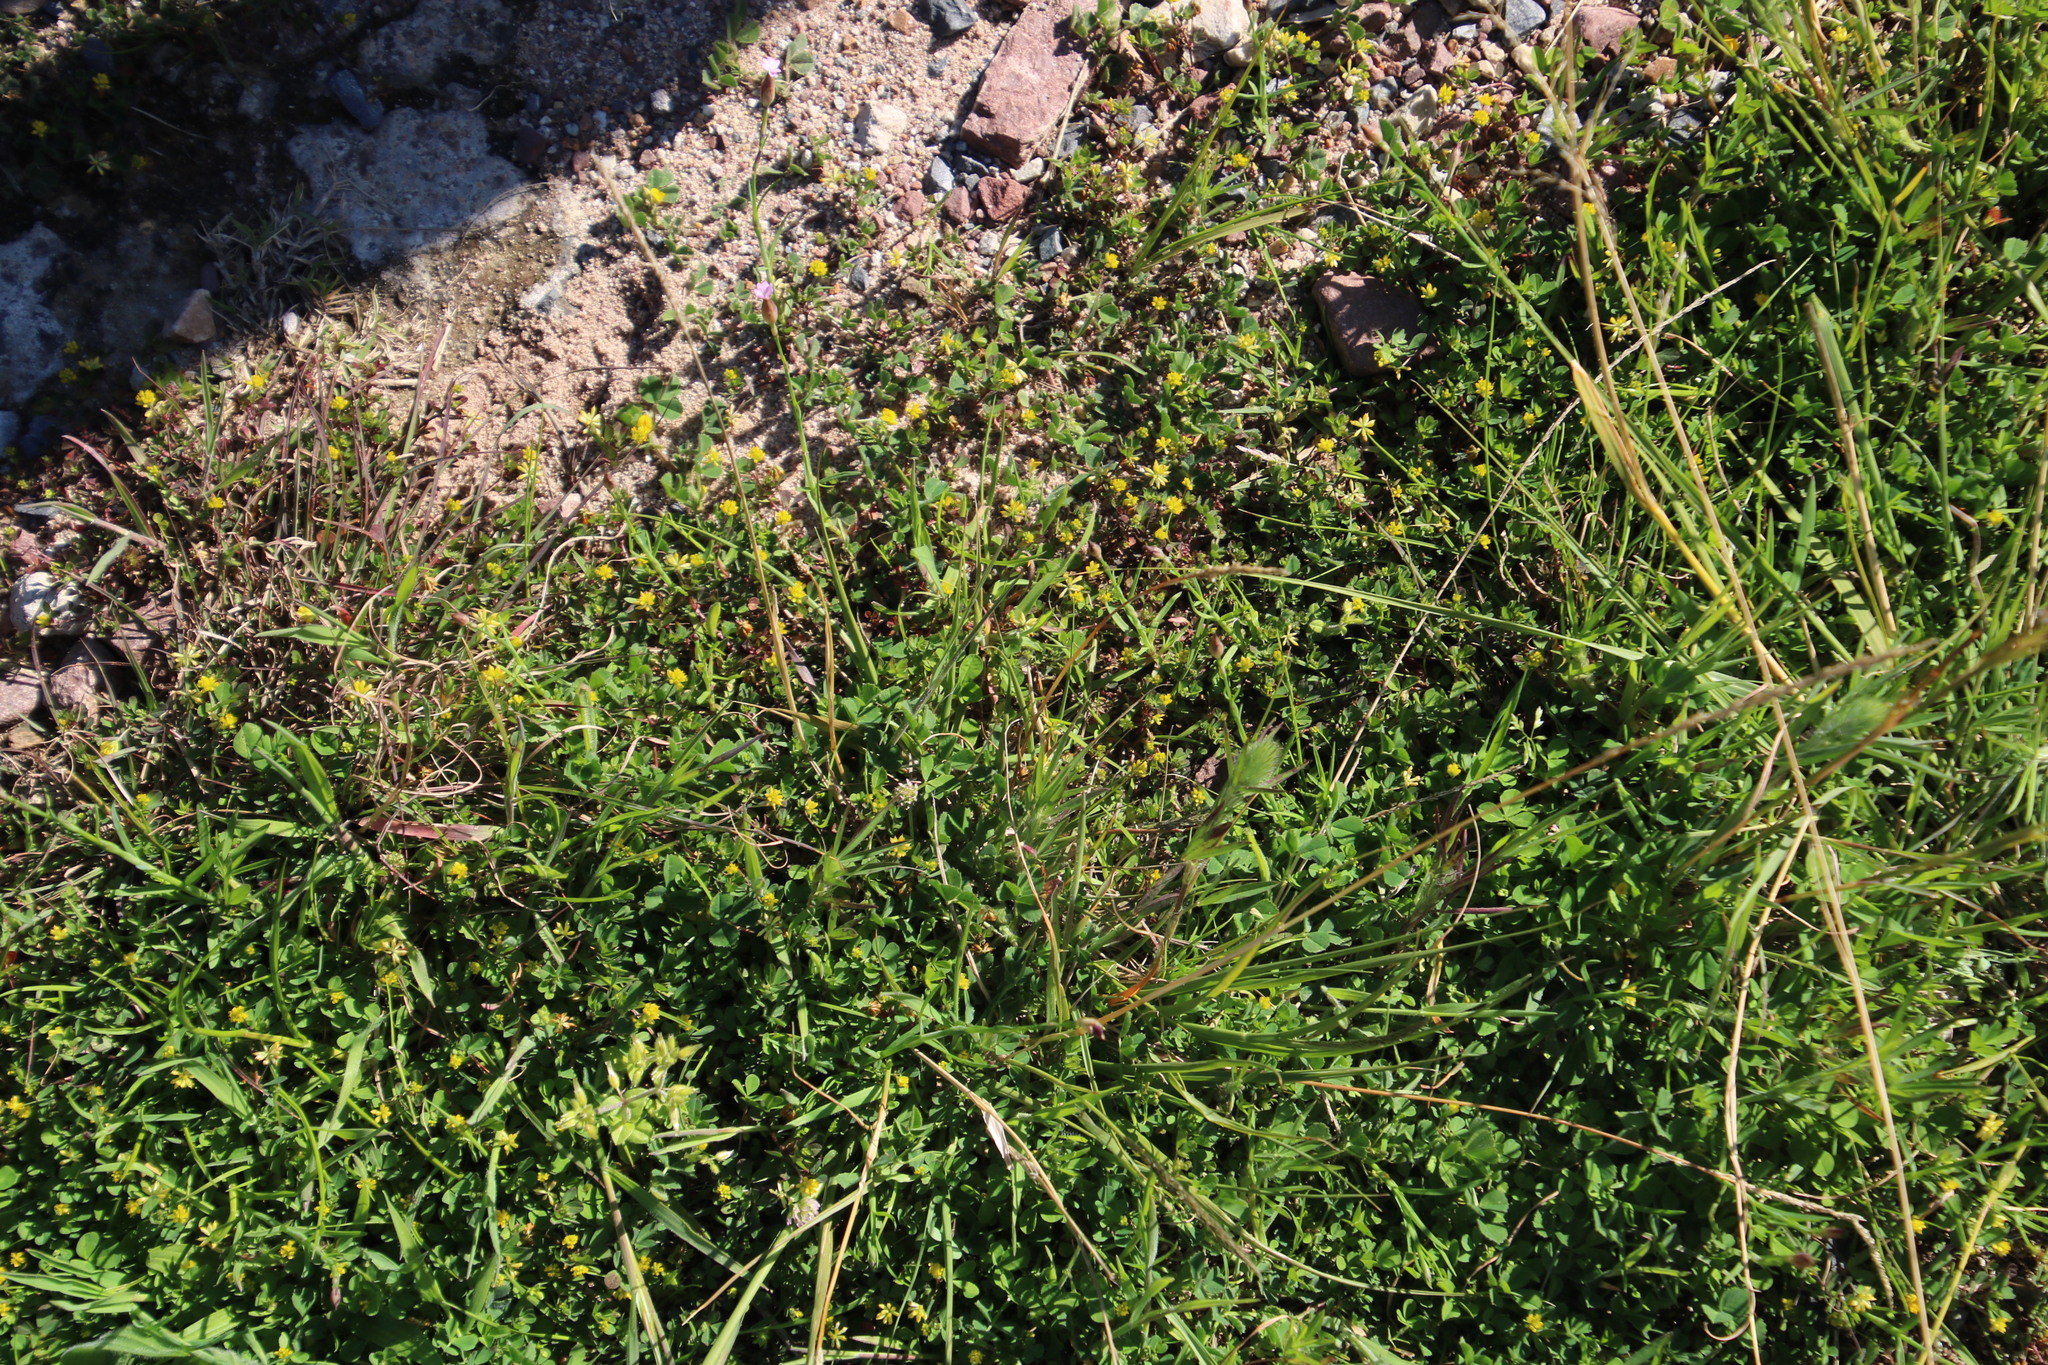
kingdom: Plantae
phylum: Tracheophyta
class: Magnoliopsida
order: Fabales
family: Fabaceae
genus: Trifolium
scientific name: Trifolium dubium
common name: Suckling clover
